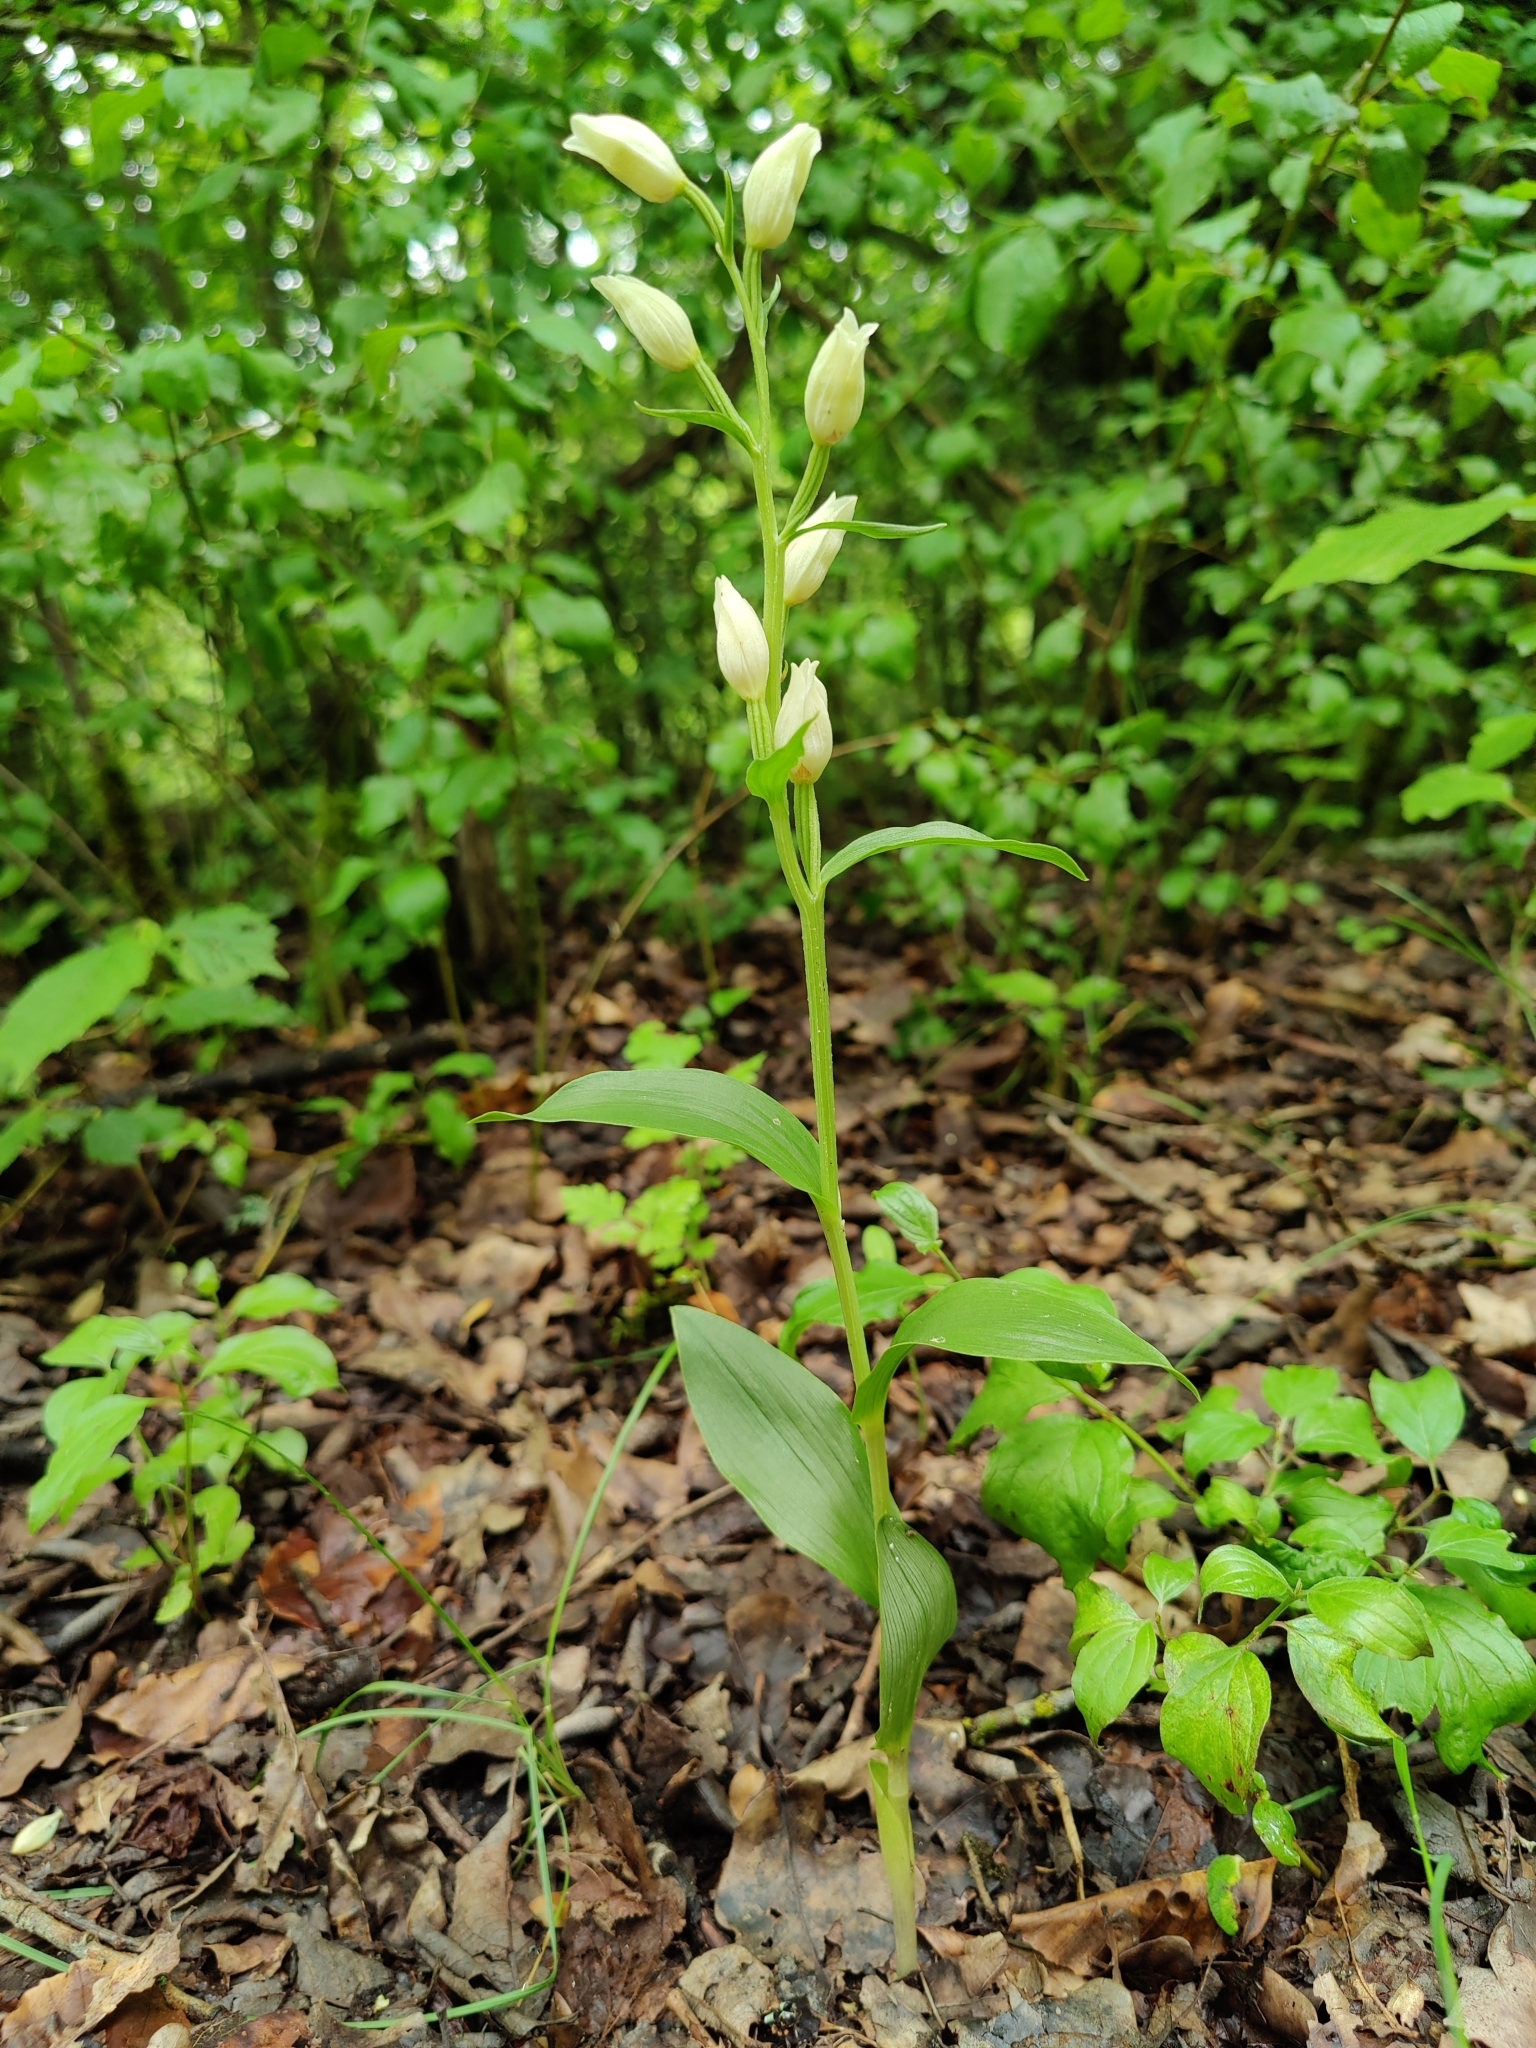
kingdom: Plantae
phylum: Tracheophyta
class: Liliopsida
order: Asparagales
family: Orchidaceae
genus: Cephalanthera
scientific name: Cephalanthera damasonium
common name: White helleborine
